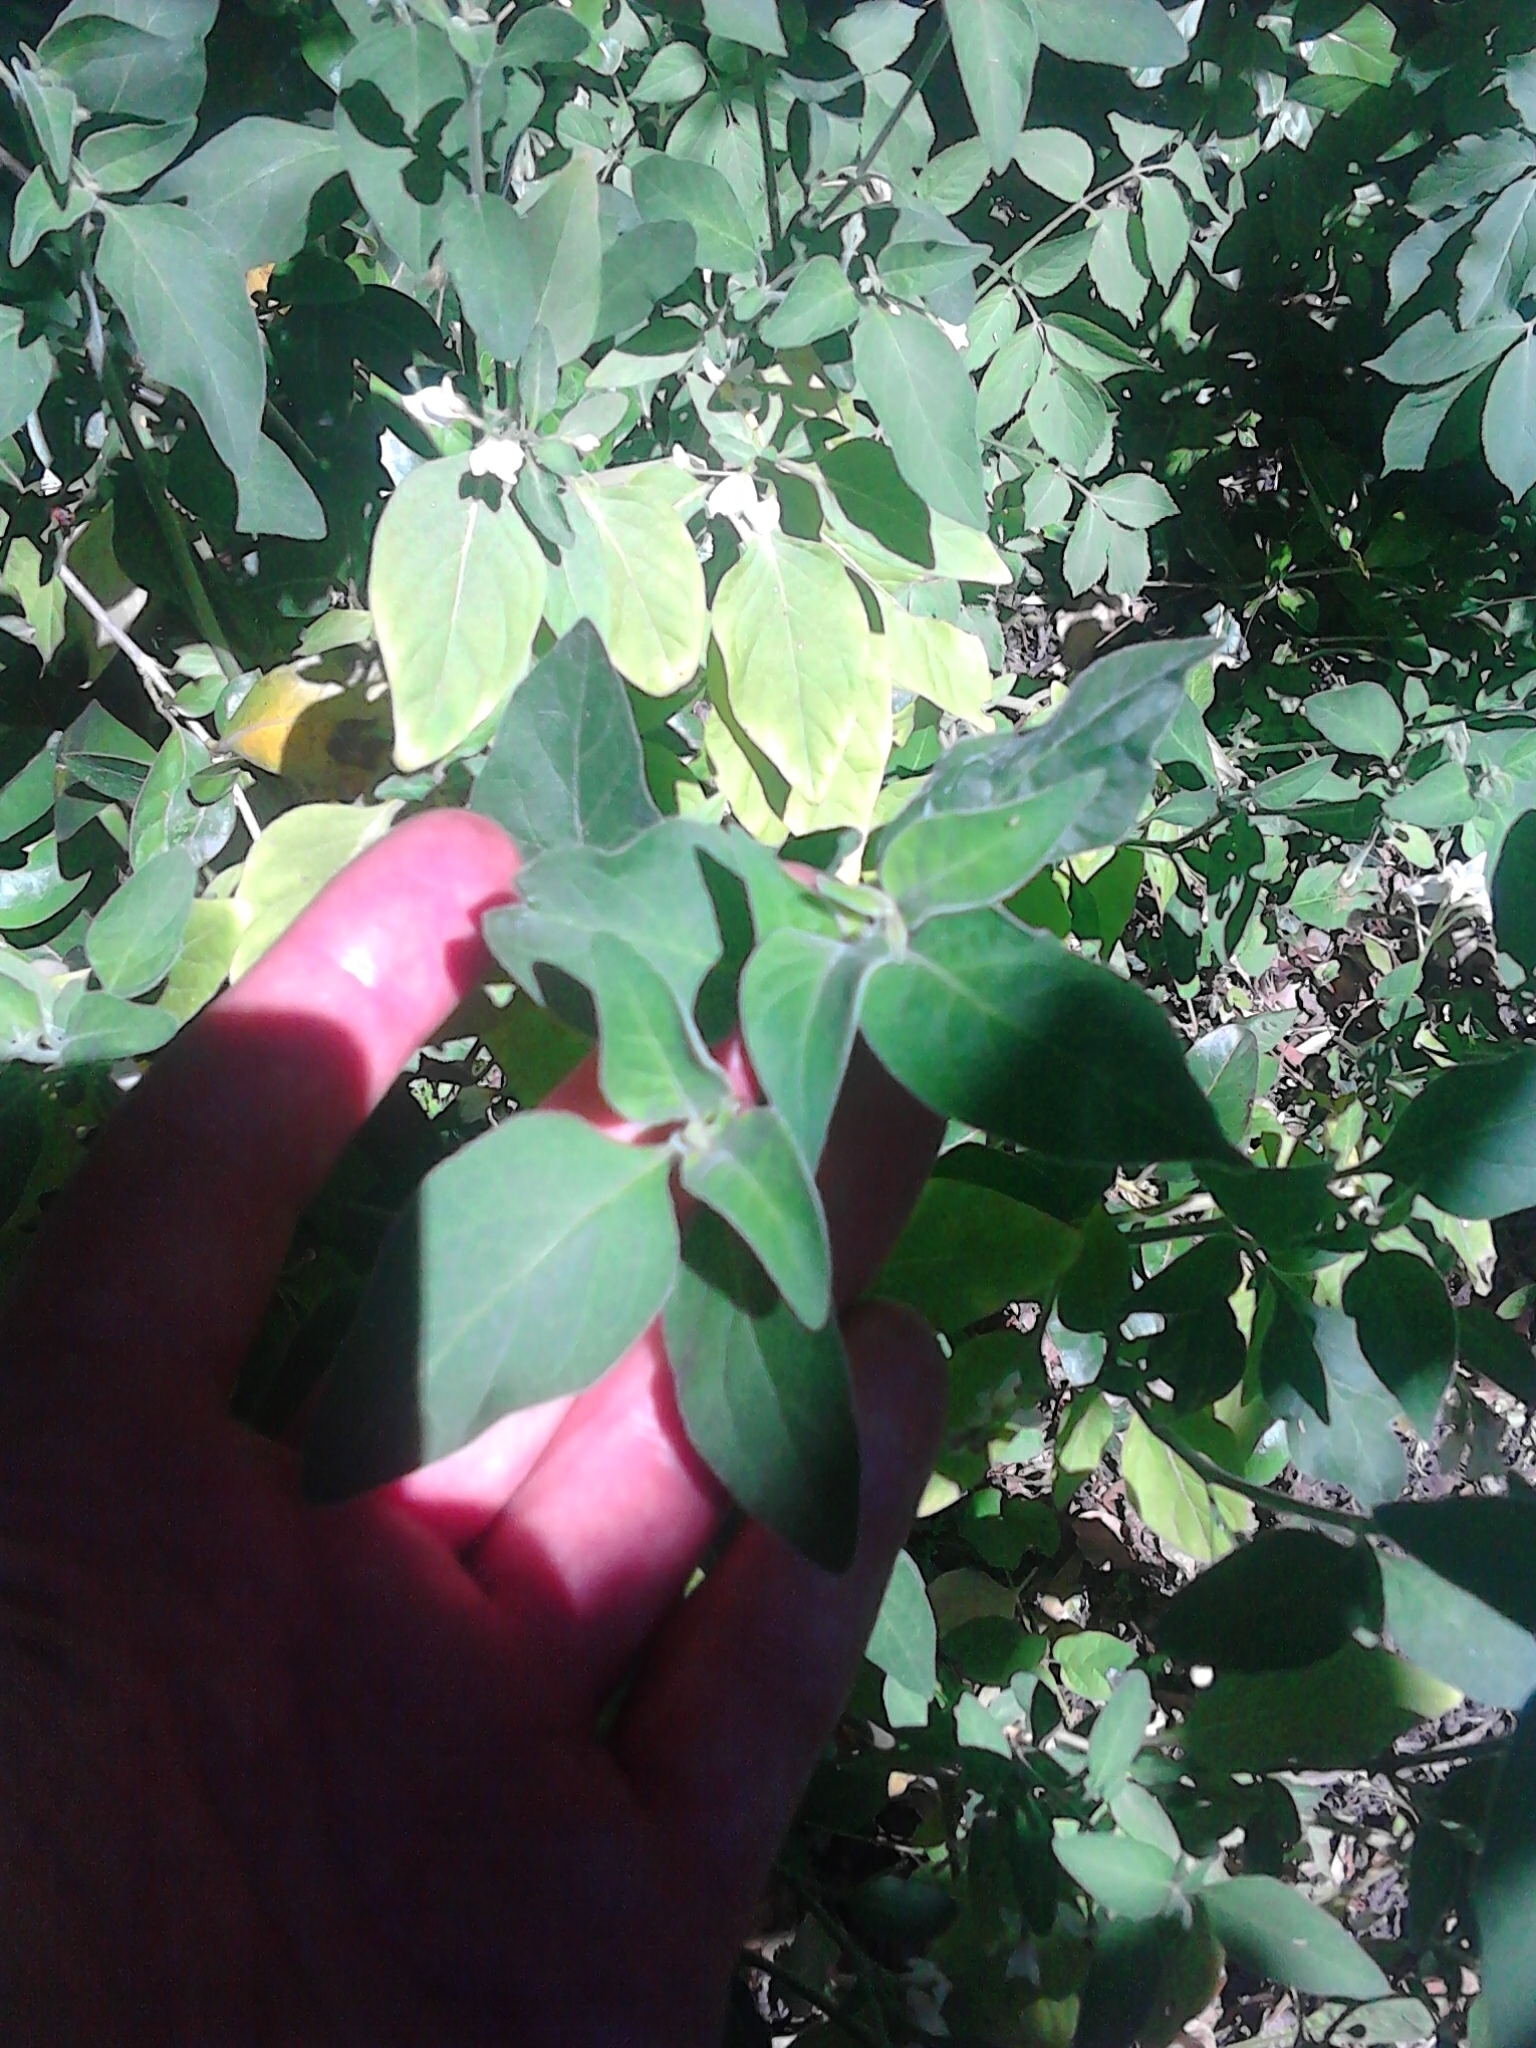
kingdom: Plantae
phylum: Tracheophyta
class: Magnoliopsida
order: Solanales
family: Solanaceae
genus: Solanum
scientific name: Solanum chenopodioides
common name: Tall nightshade
